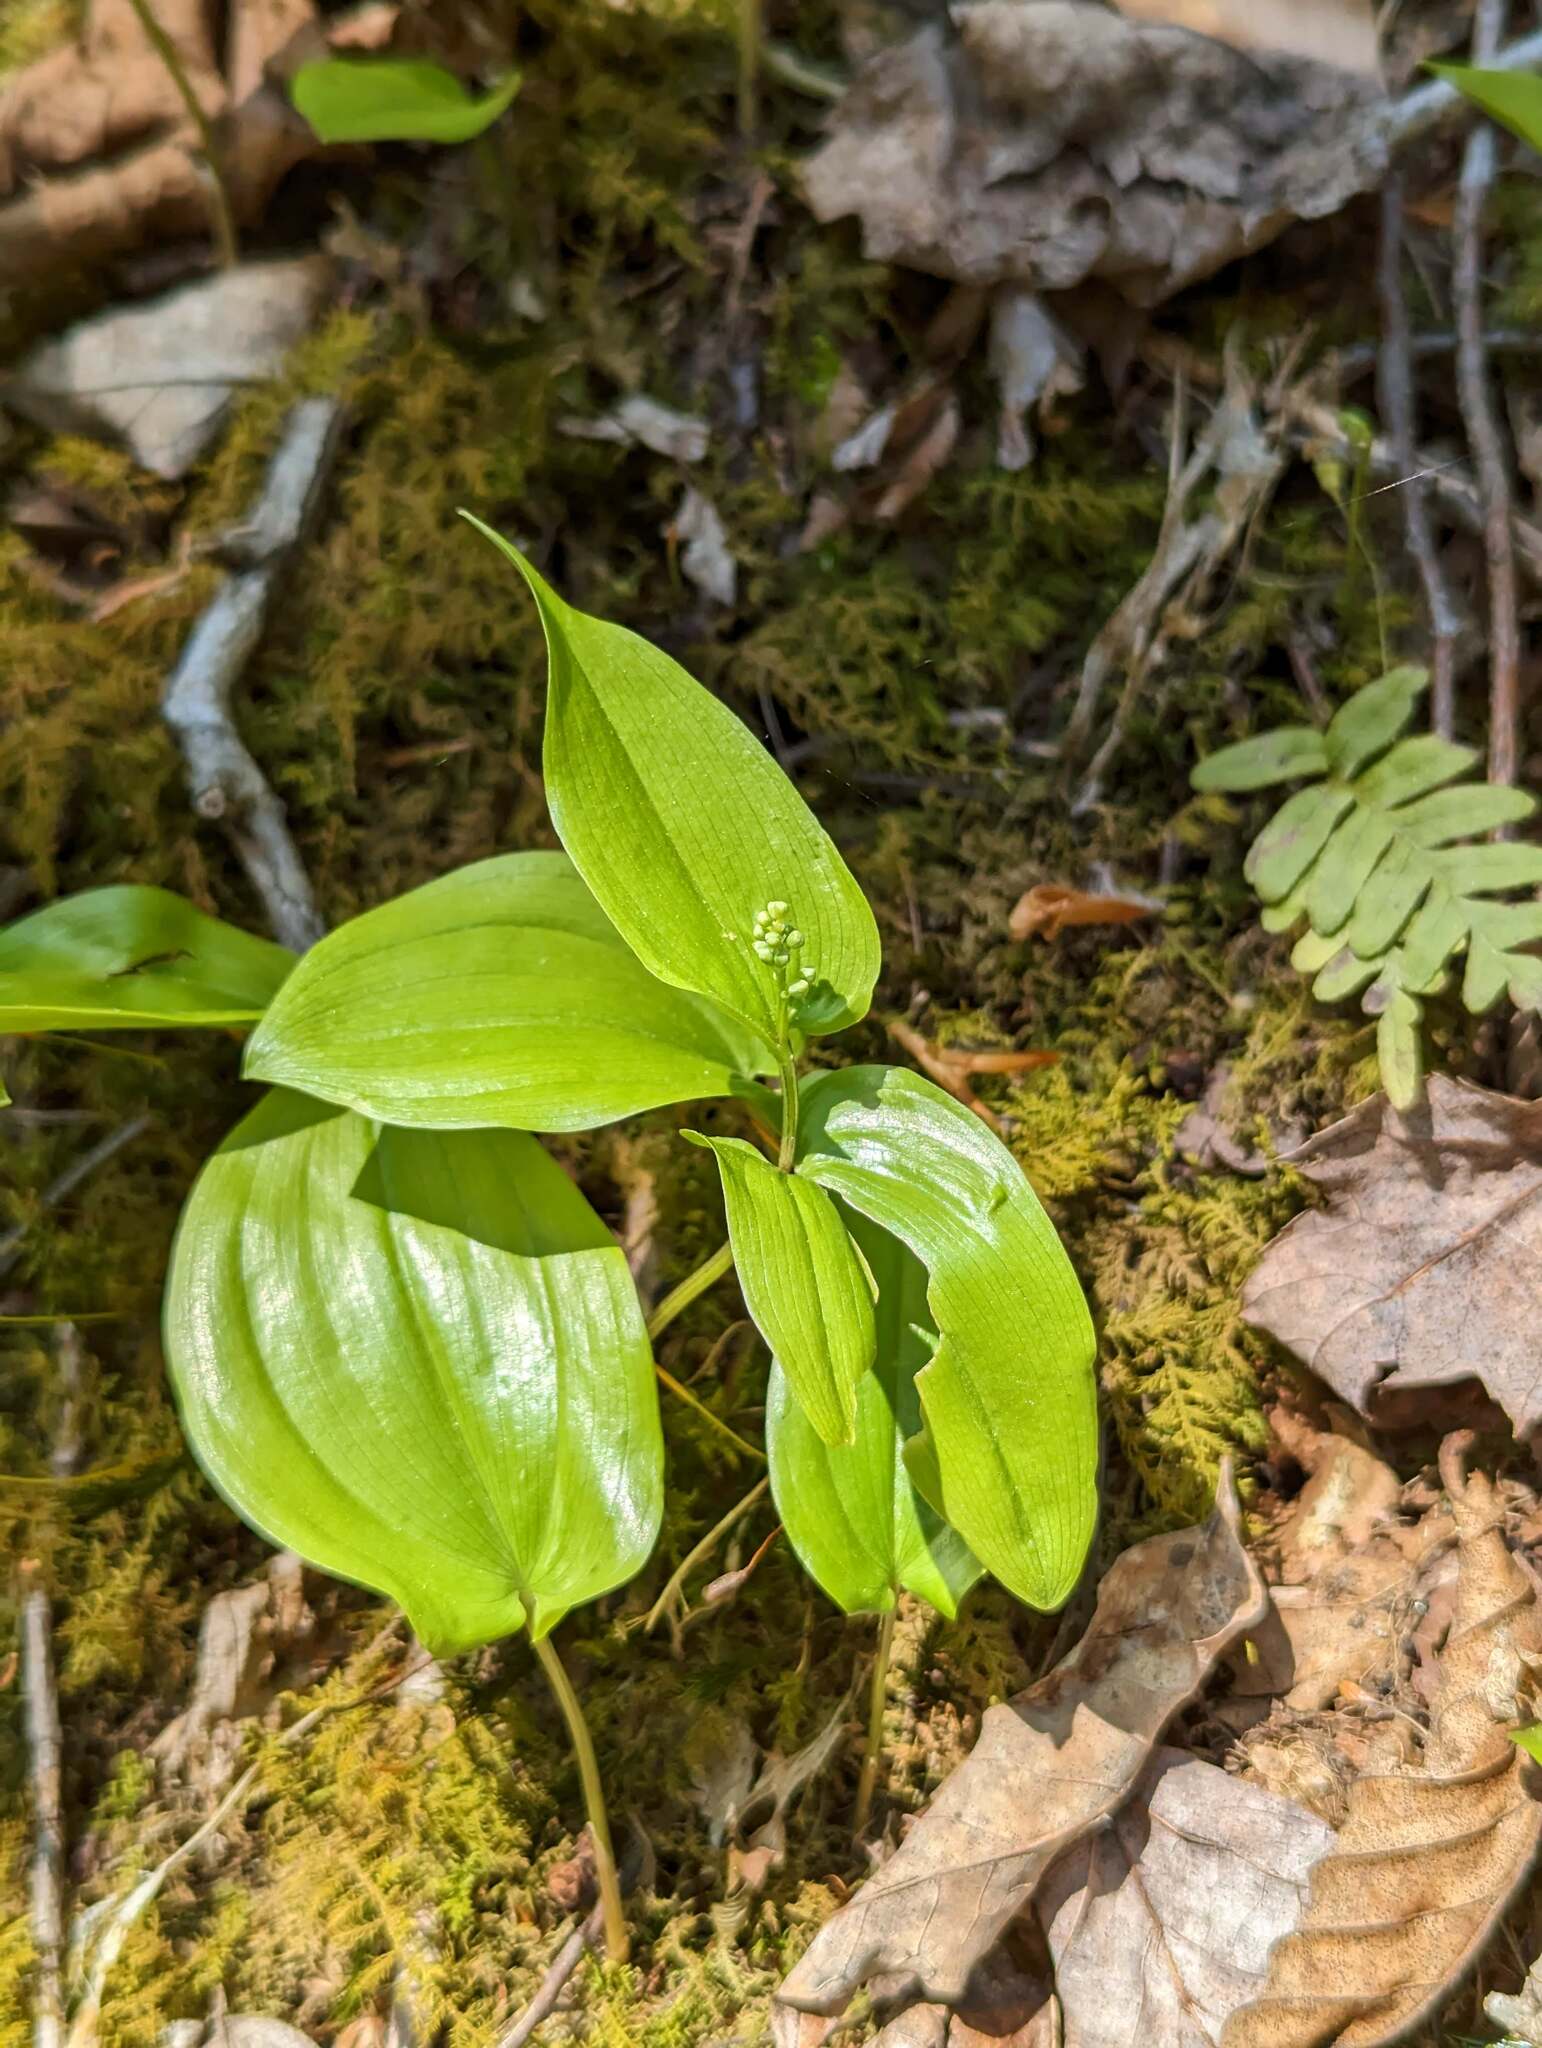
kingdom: Plantae
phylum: Tracheophyta
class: Liliopsida
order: Asparagales
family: Asparagaceae
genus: Maianthemum
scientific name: Maianthemum canadense
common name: False lily-of-the-valley
